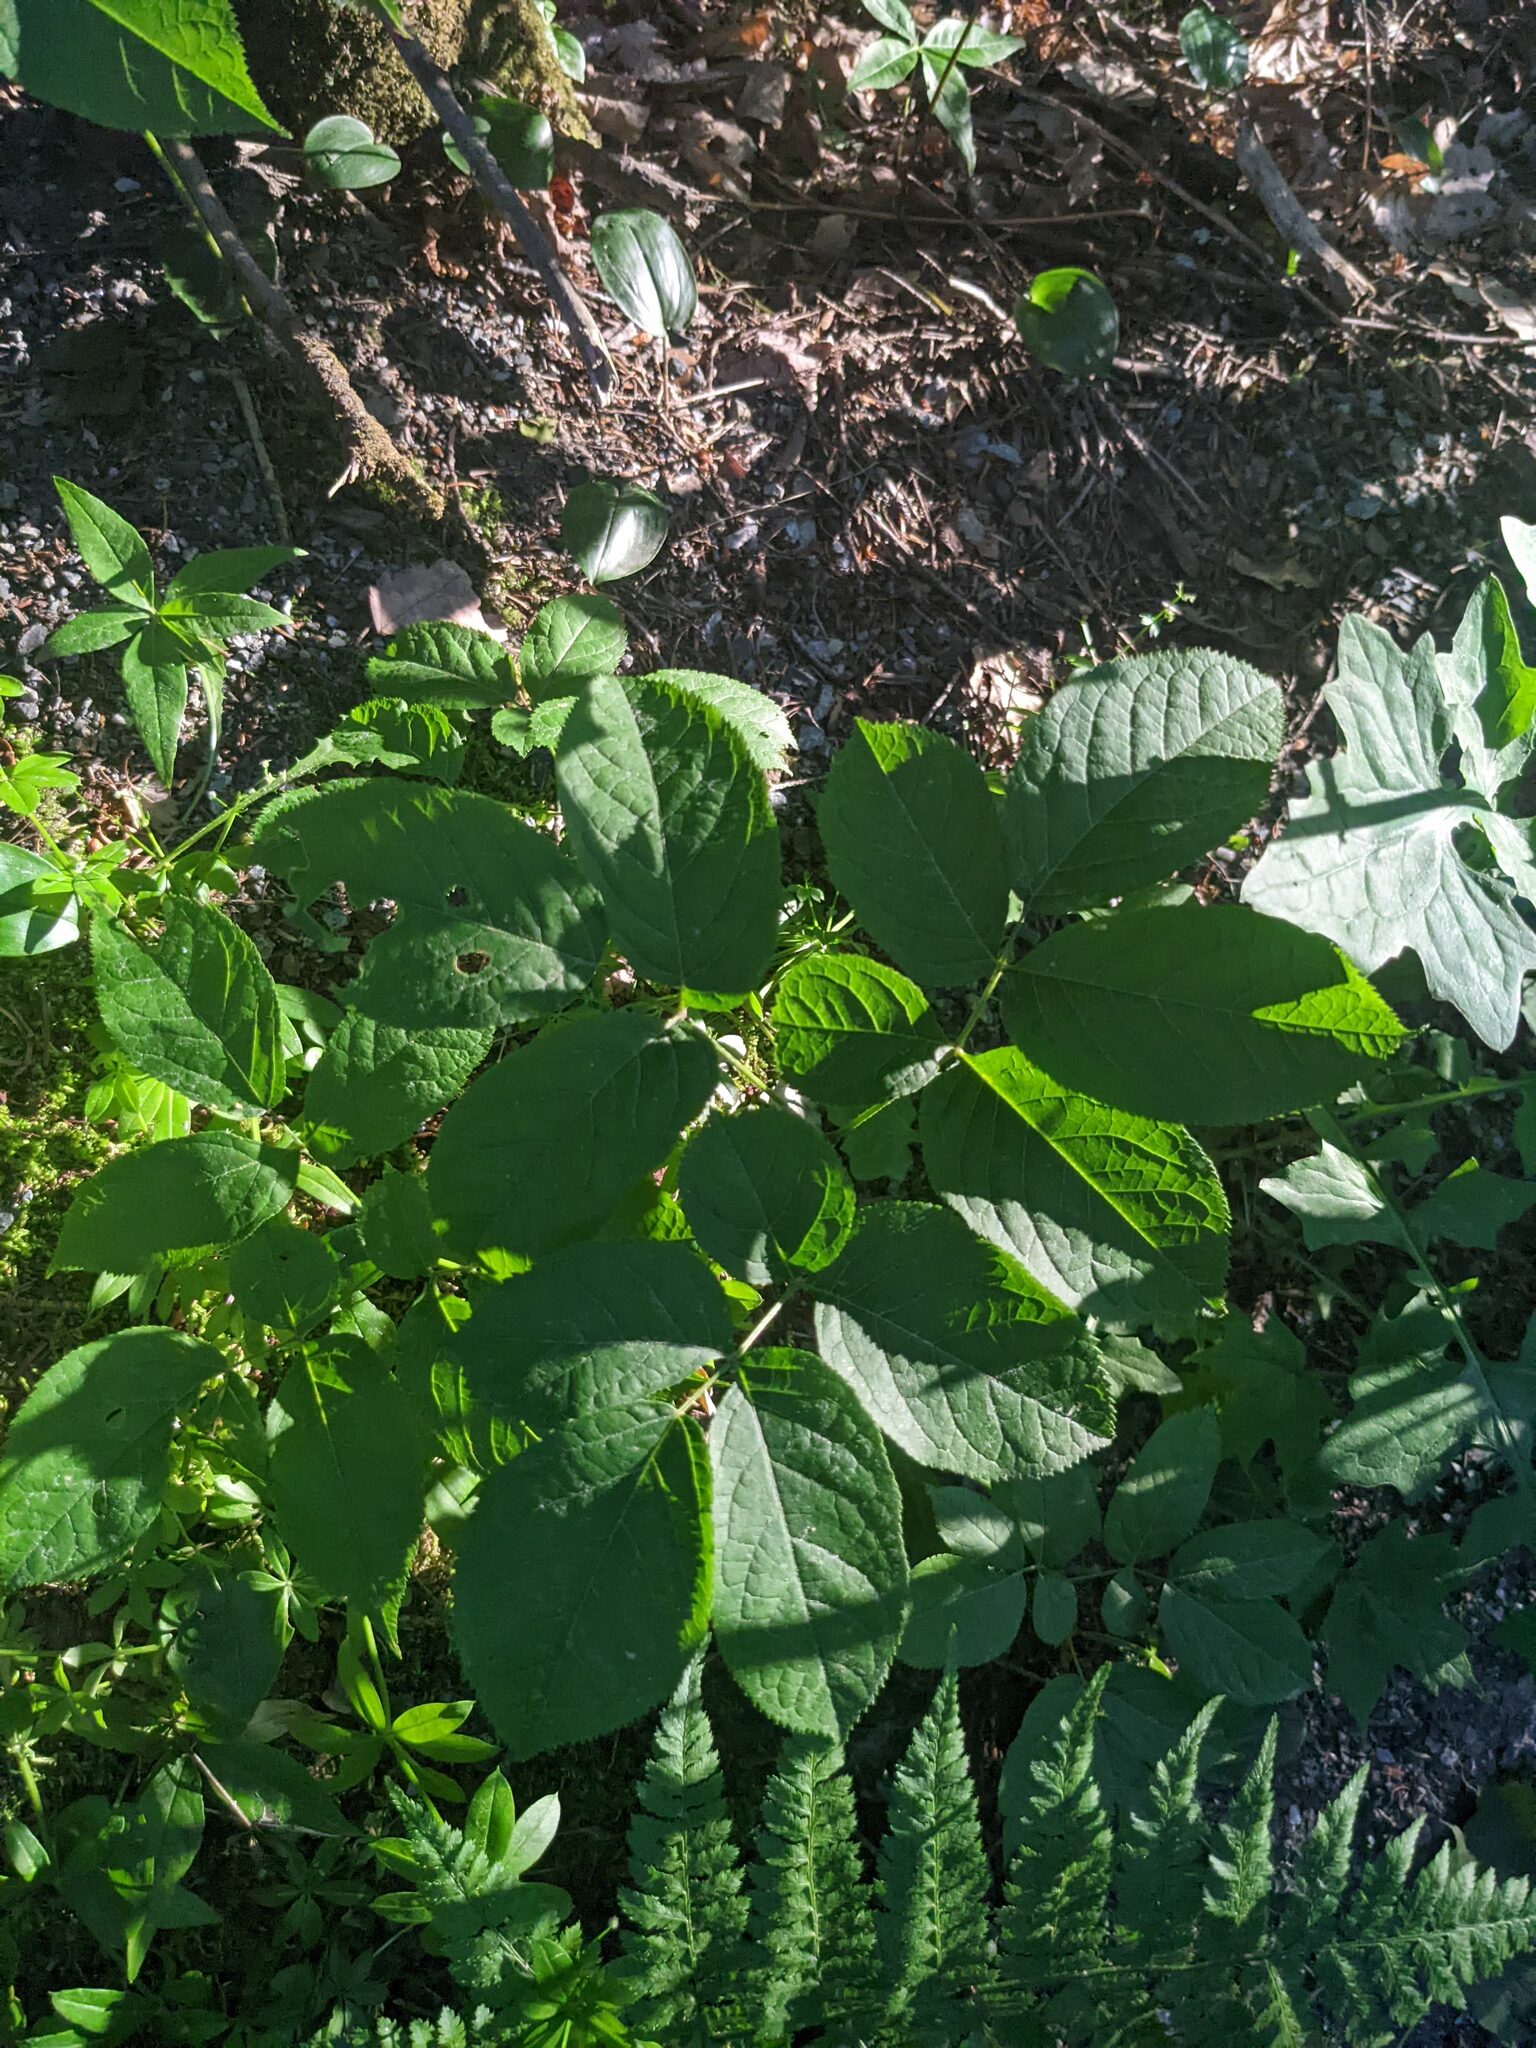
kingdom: Plantae
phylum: Tracheophyta
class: Magnoliopsida
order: Apiales
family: Araliaceae
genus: Aralia
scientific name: Aralia nudicaulis
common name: Wild sarsaparilla
